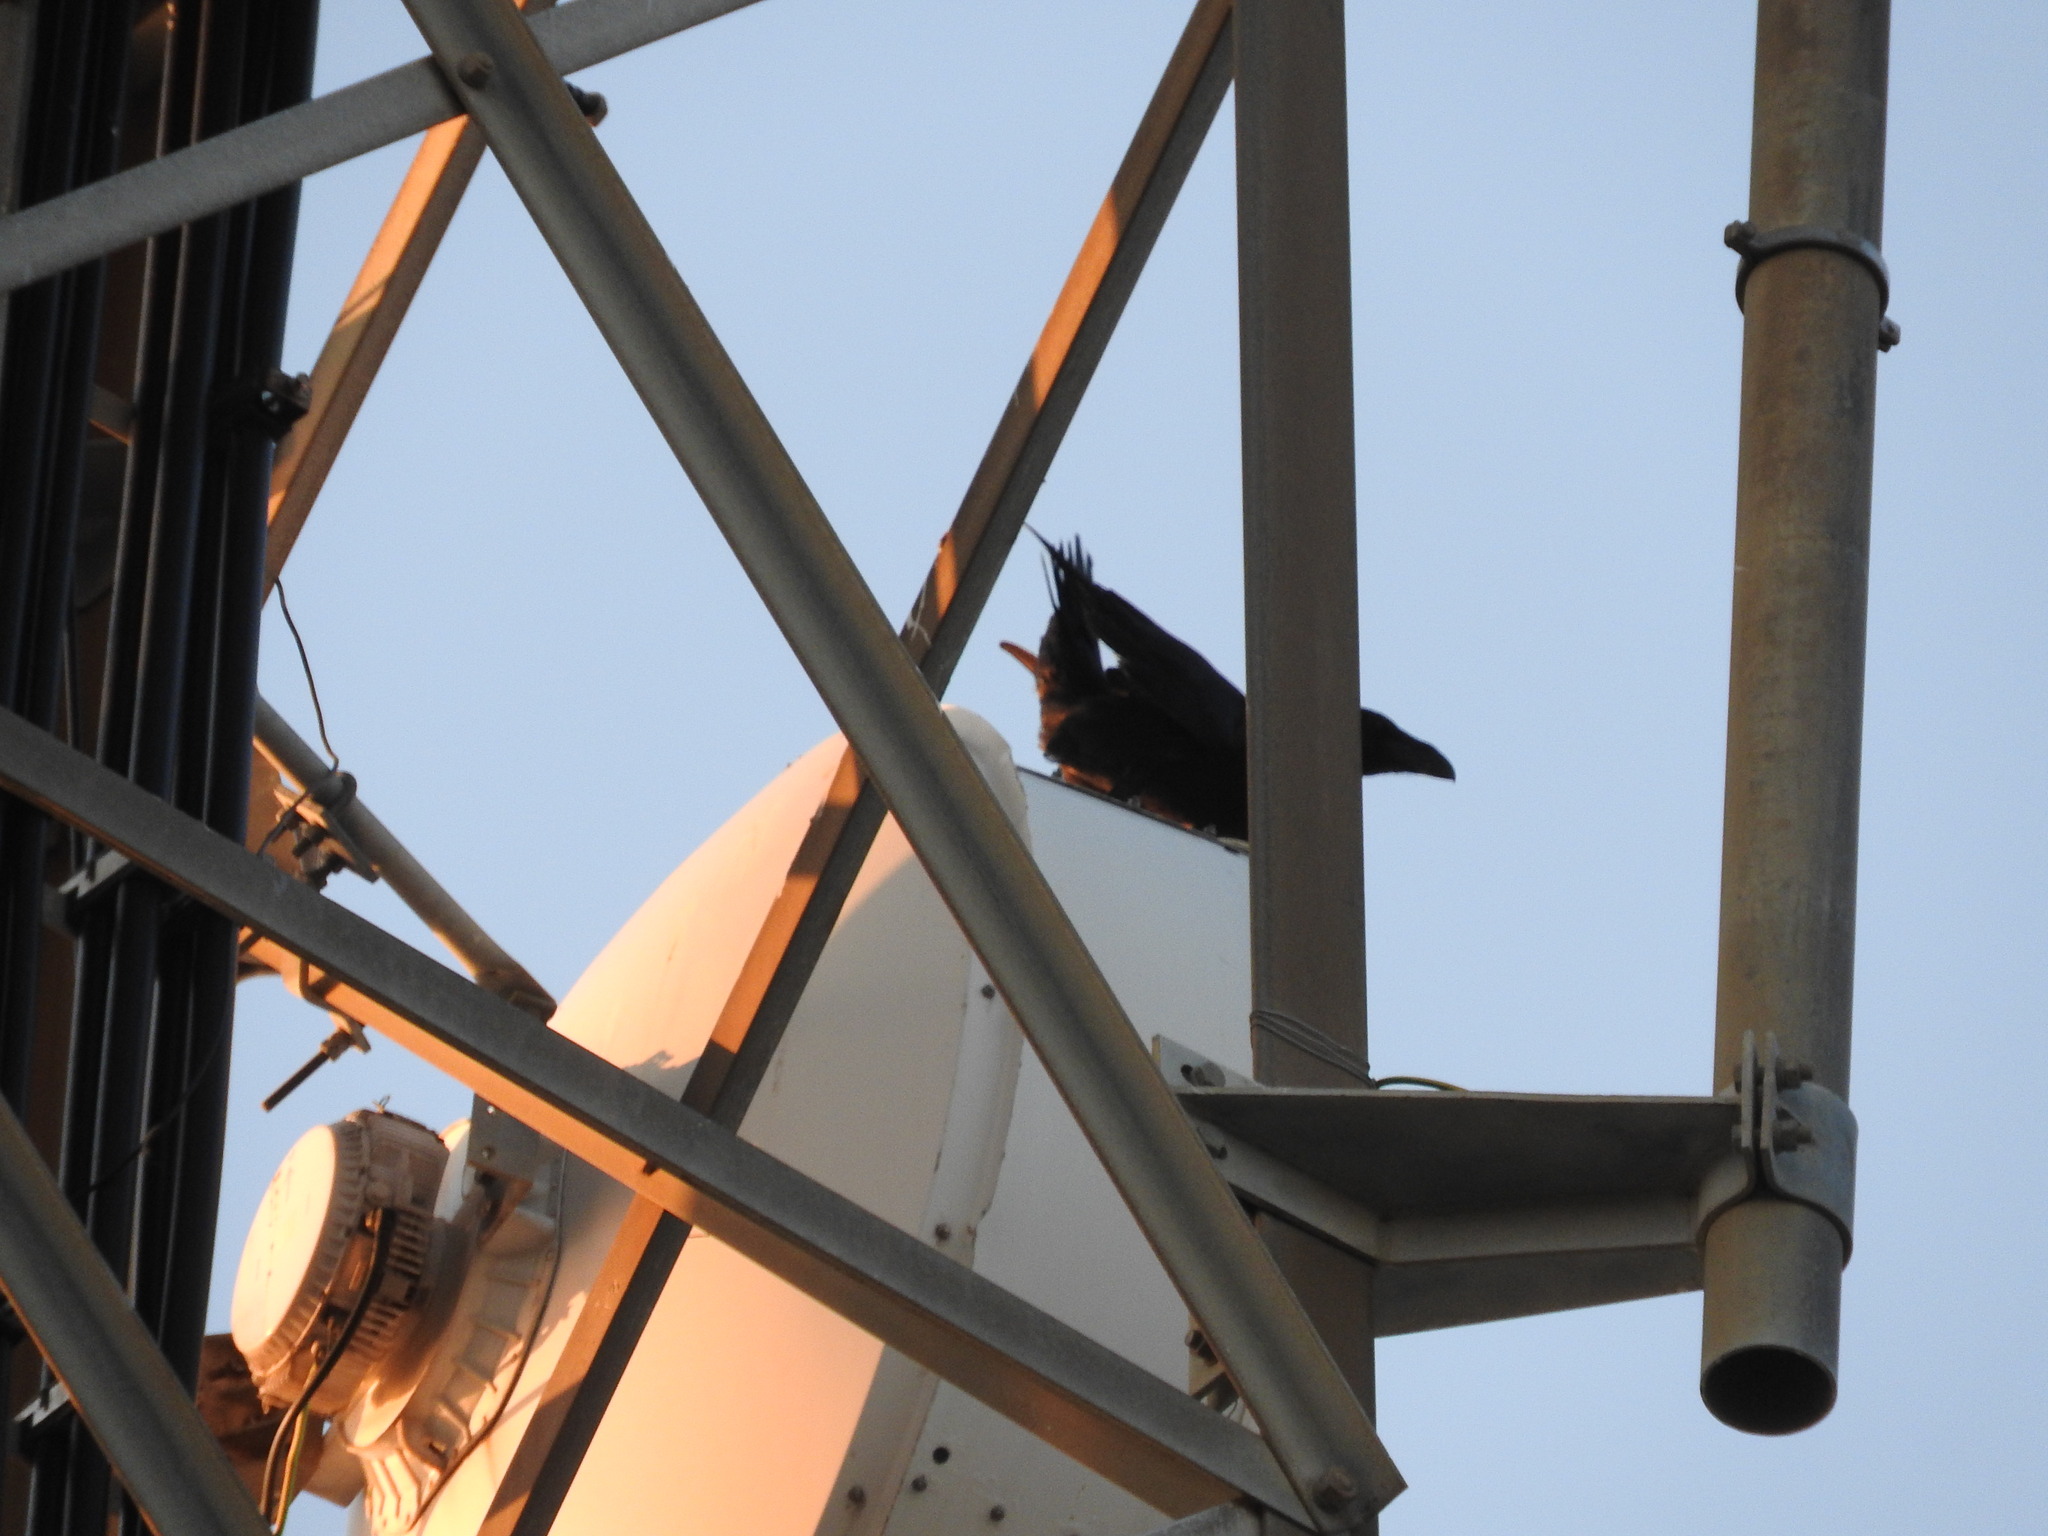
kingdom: Animalia
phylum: Chordata
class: Aves
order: Passeriformes
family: Corvidae
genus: Corvus
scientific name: Corvus corax
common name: Common raven
